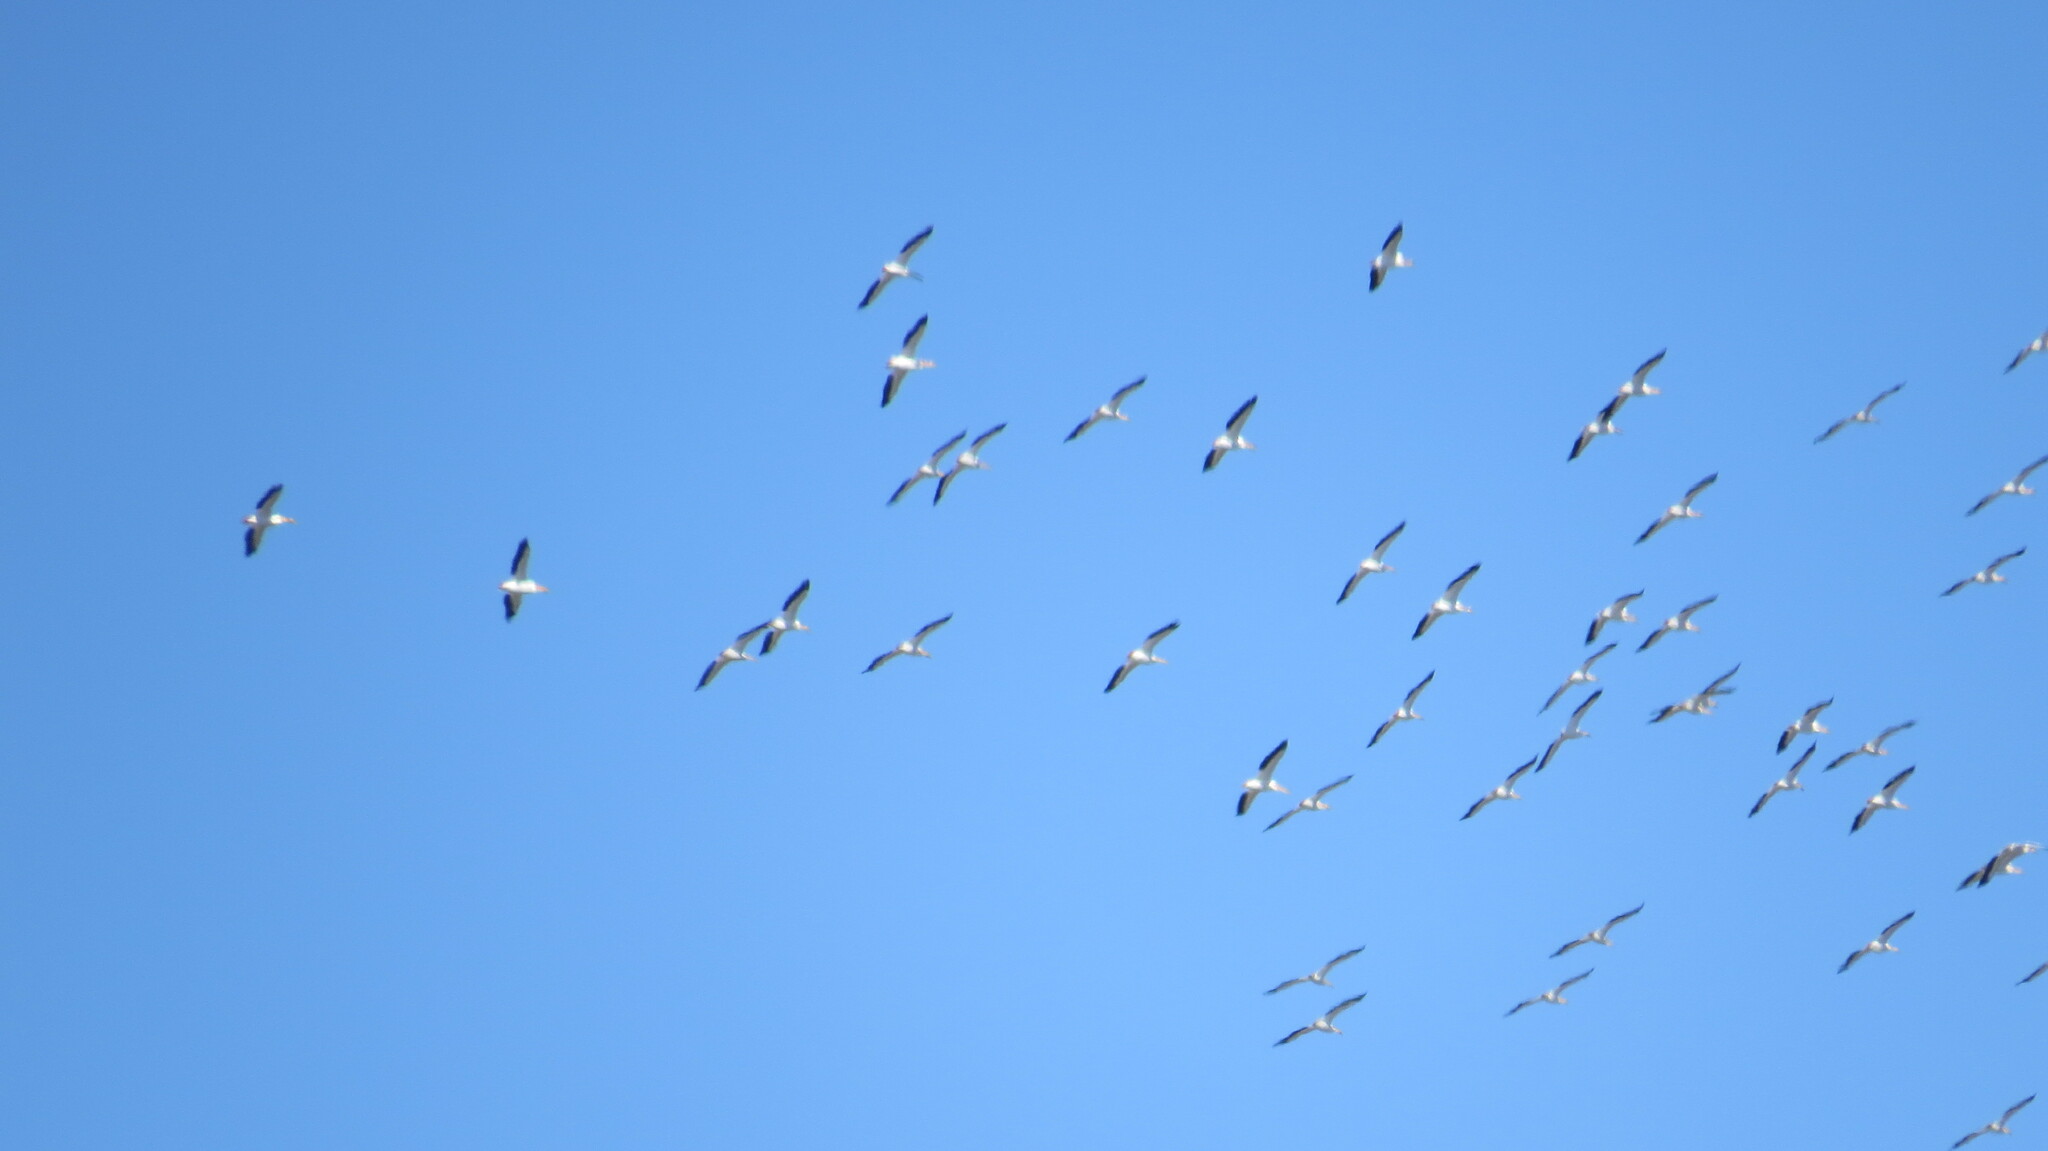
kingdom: Animalia
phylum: Chordata
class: Aves
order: Pelecaniformes
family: Pelecanidae
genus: Pelecanus
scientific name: Pelecanus erythrorhynchos
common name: American white pelican
